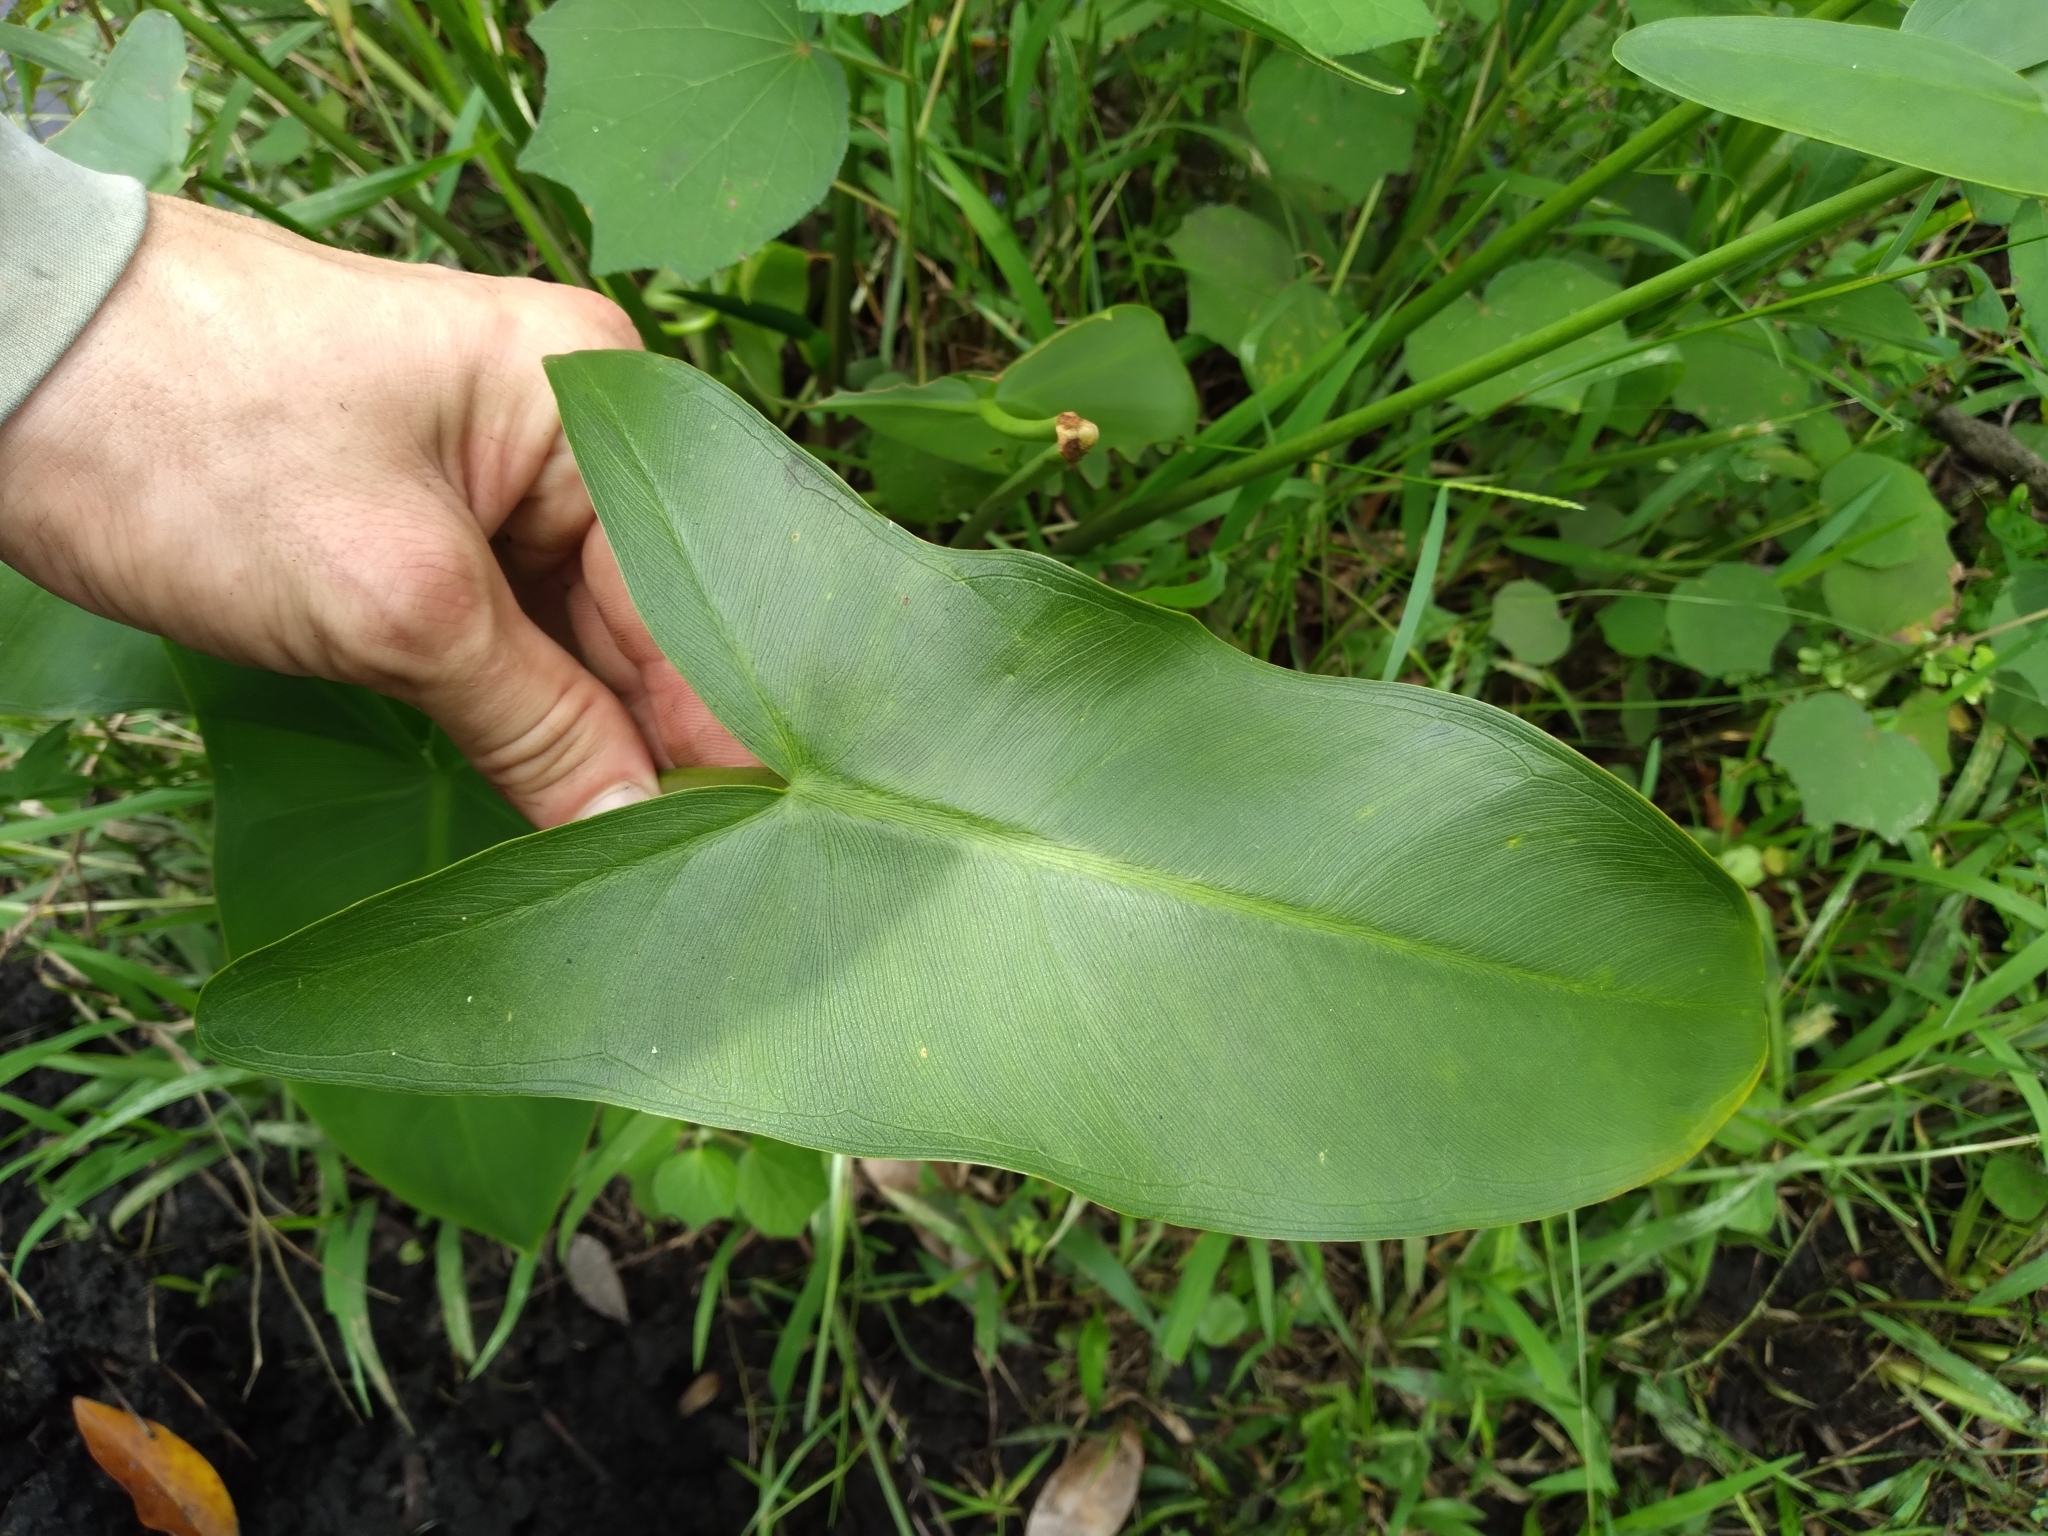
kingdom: Plantae
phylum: Tracheophyta
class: Liliopsida
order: Alismatales
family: Araceae
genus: Peltandra
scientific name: Peltandra virginica
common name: Arrow arum
